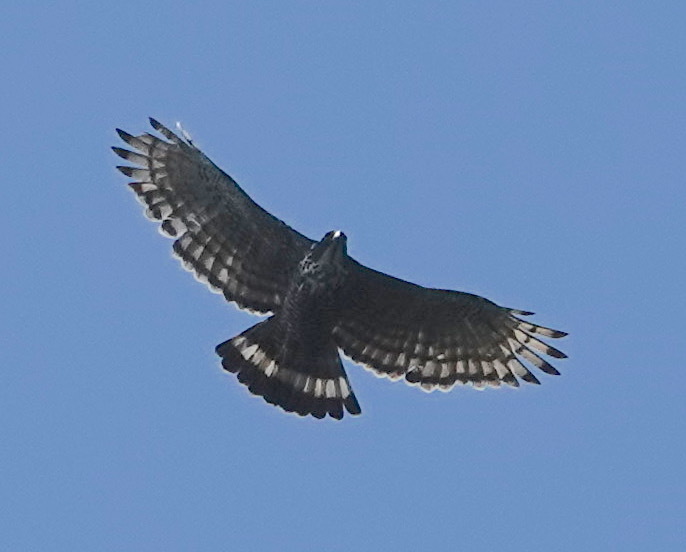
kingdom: Animalia
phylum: Chordata
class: Aves
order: Accipitriformes
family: Accipitridae
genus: Nisaetus
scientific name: Nisaetus alboniger
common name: Blyth's hawk-eagle
